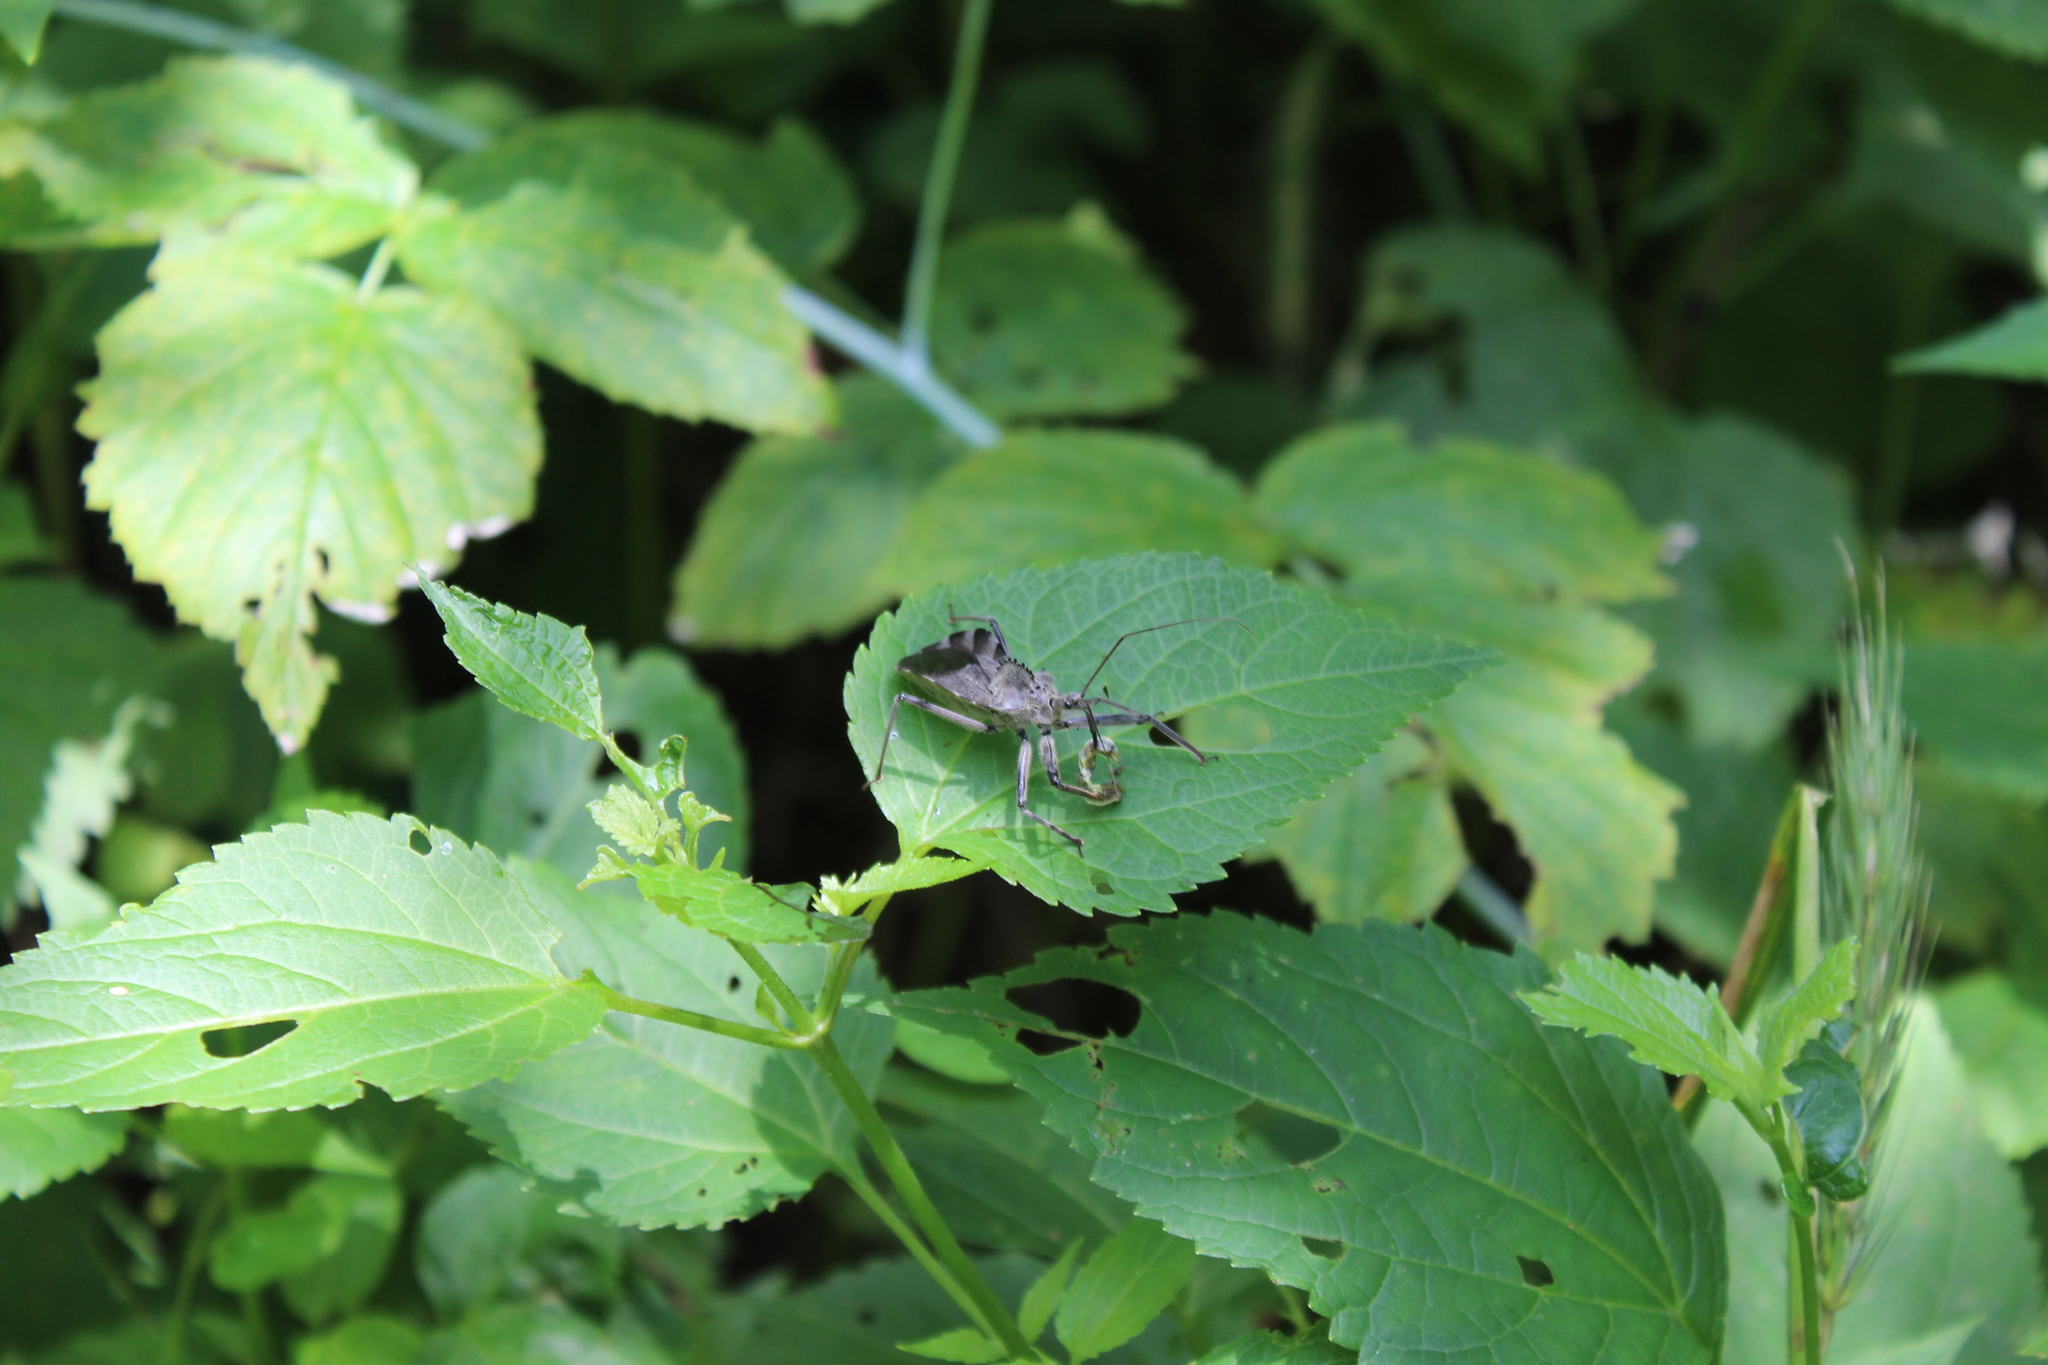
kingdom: Animalia
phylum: Arthropoda
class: Insecta
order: Hemiptera
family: Reduviidae
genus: Arilus
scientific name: Arilus cristatus
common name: North american wheel bug
